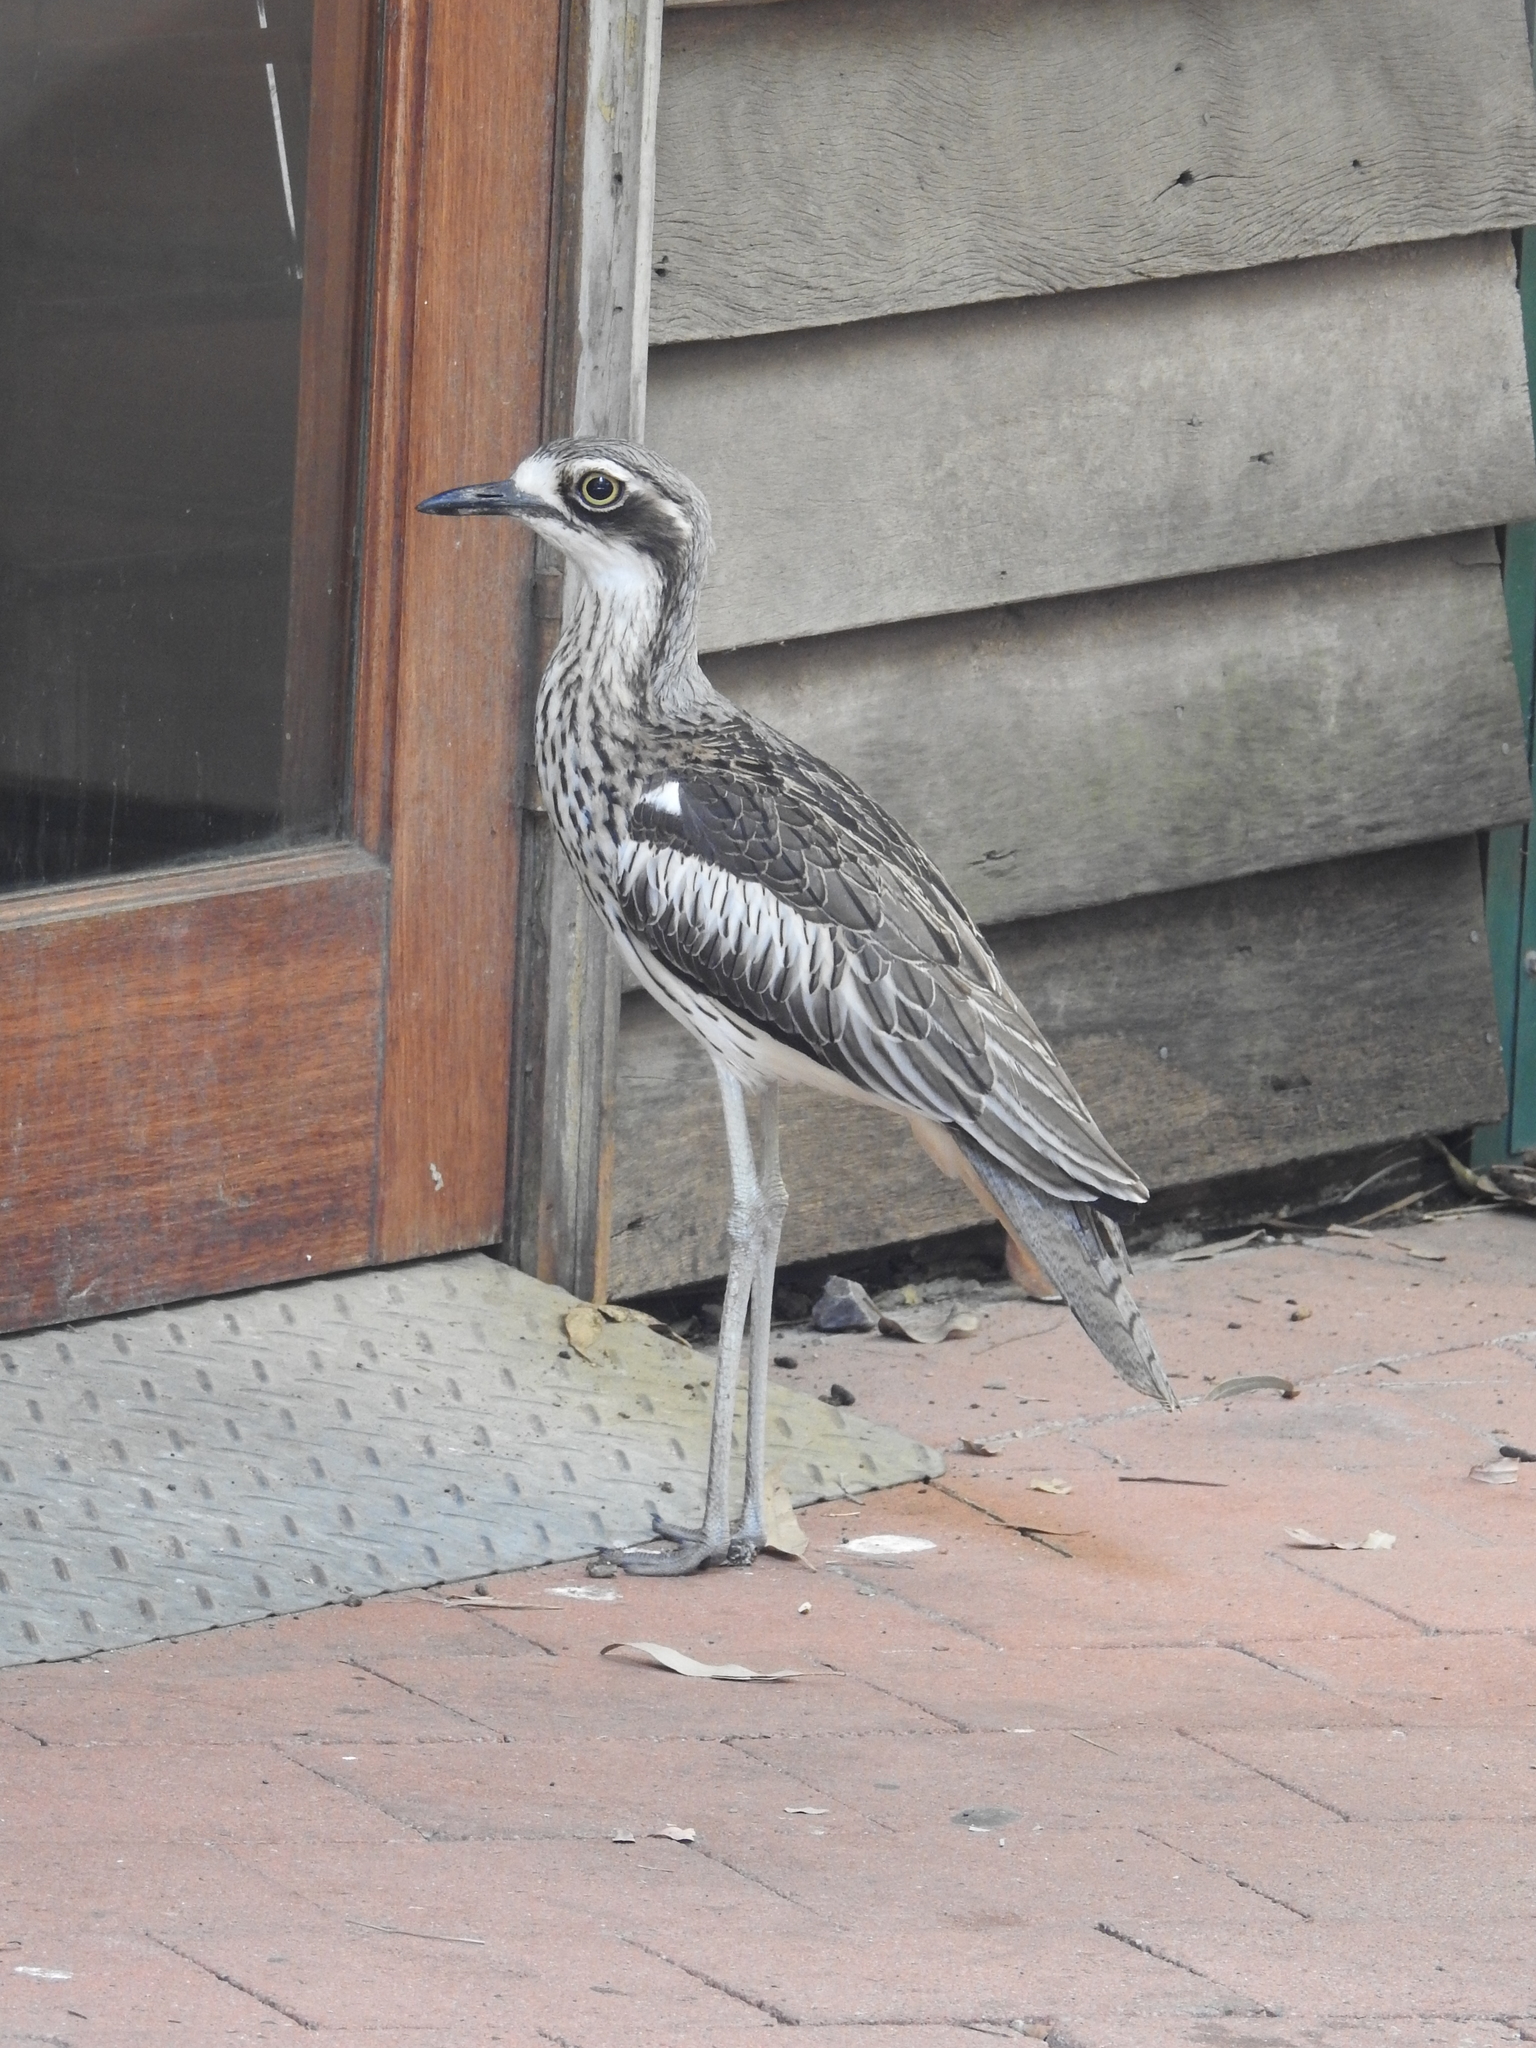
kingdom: Animalia
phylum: Chordata
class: Aves
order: Charadriiformes
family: Burhinidae
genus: Burhinus
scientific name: Burhinus grallarius
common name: Bush stone-curlew
